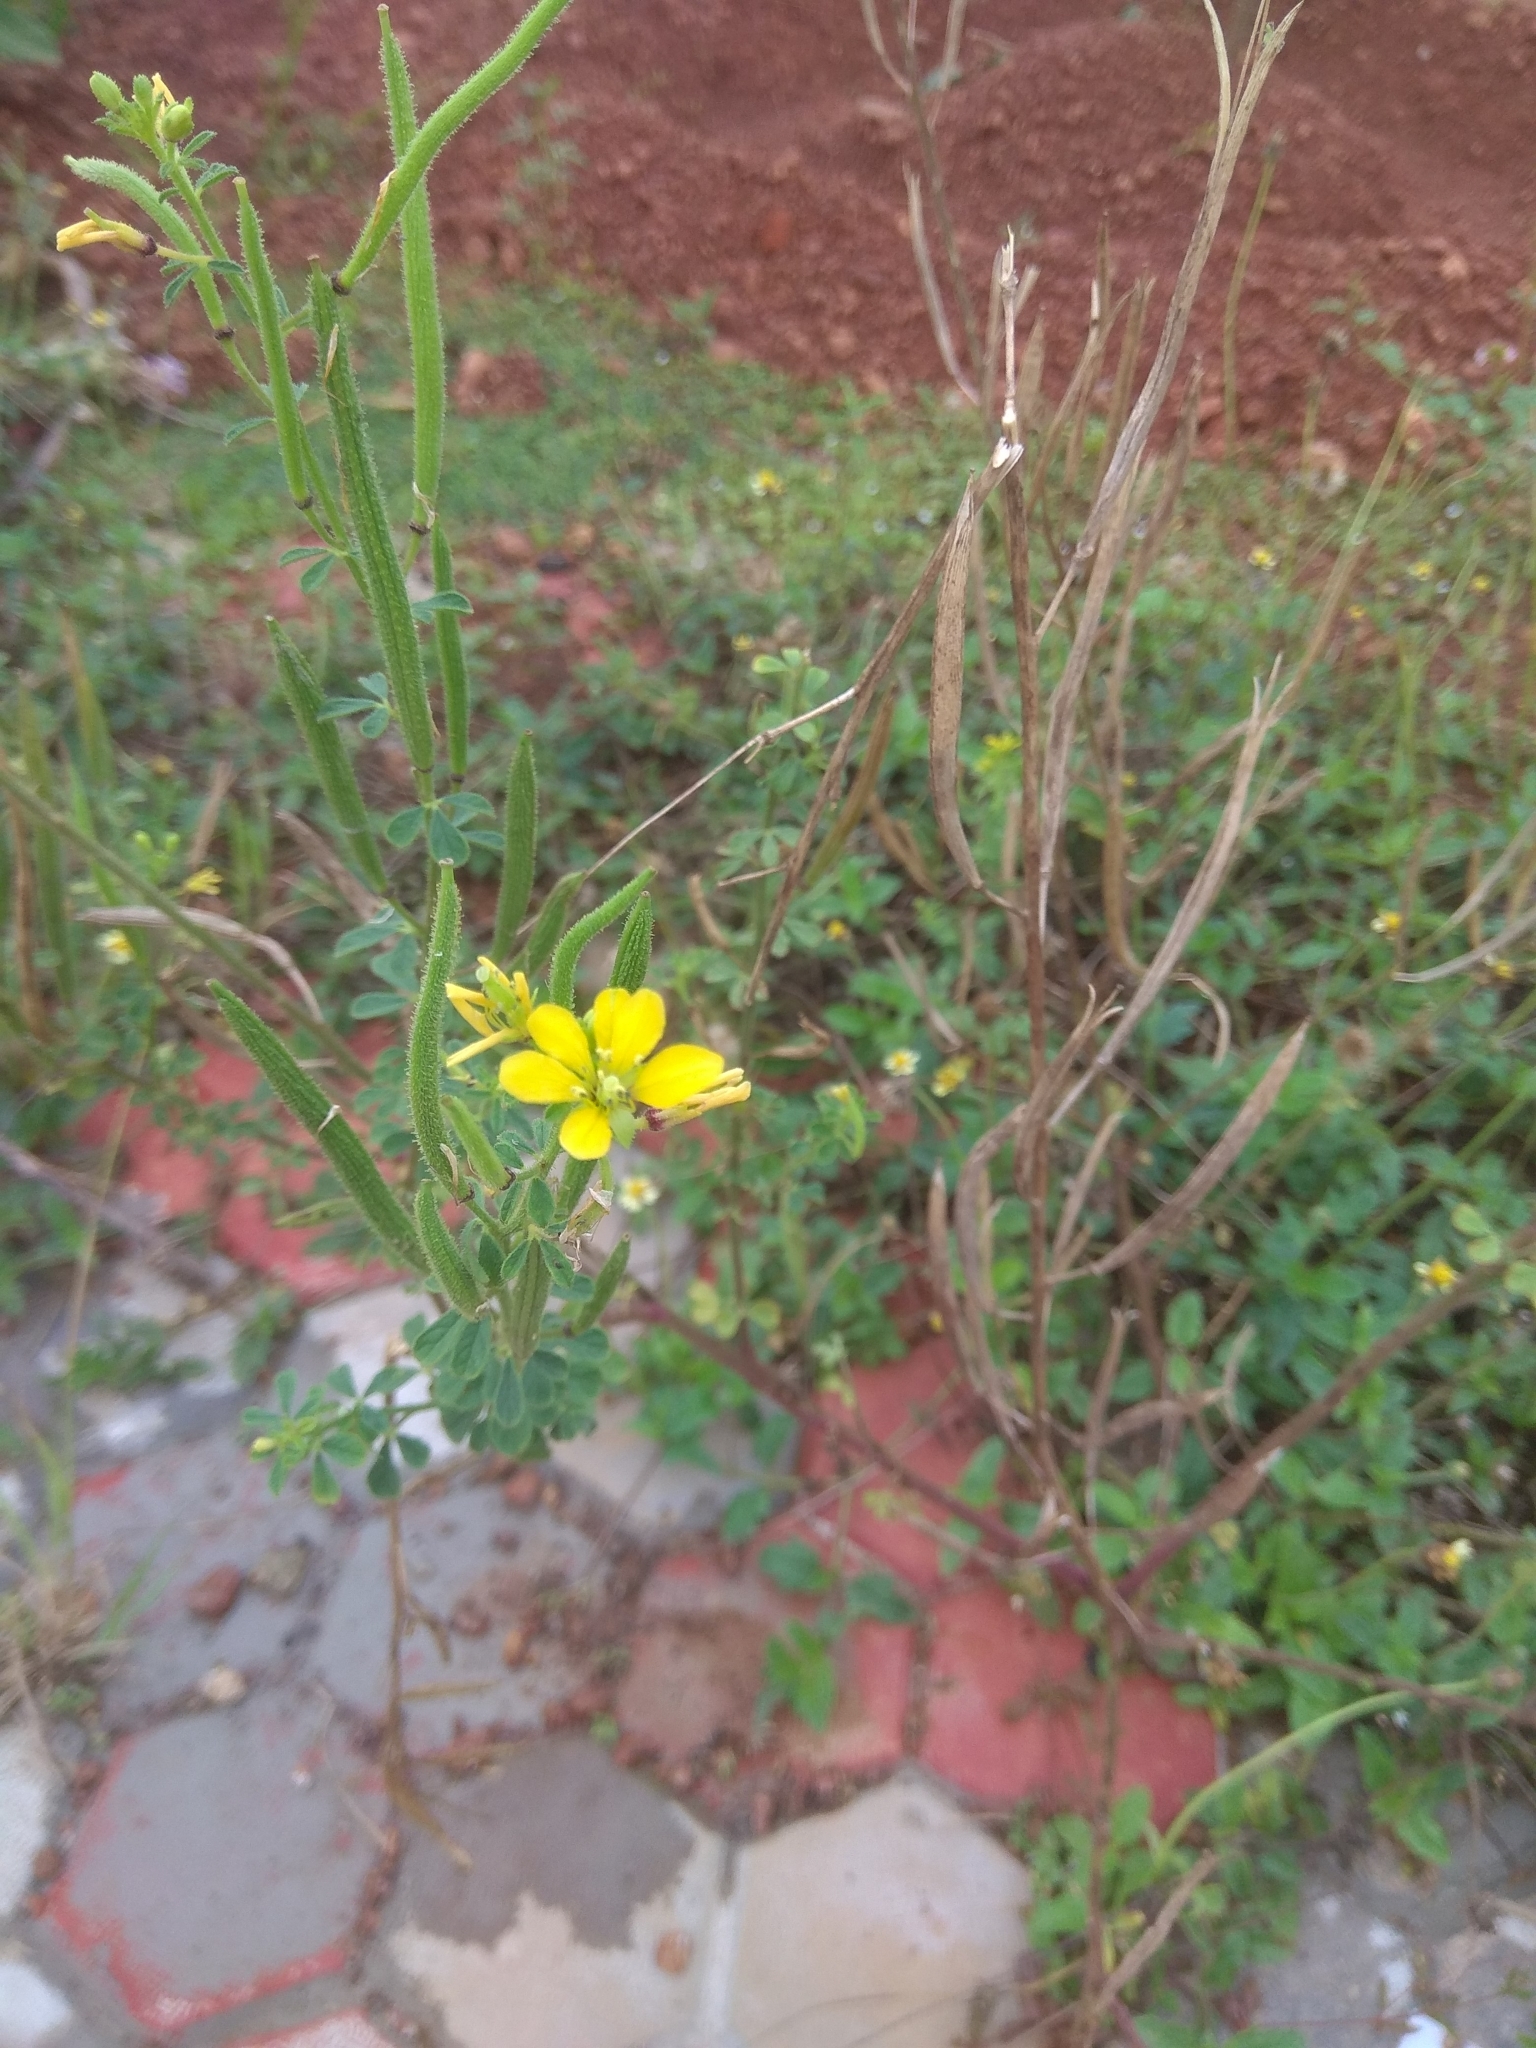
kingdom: Plantae
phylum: Tracheophyta
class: Magnoliopsida
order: Brassicales
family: Cleomaceae
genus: Arivela
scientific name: Arivela viscosa
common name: Asian spiderflower
